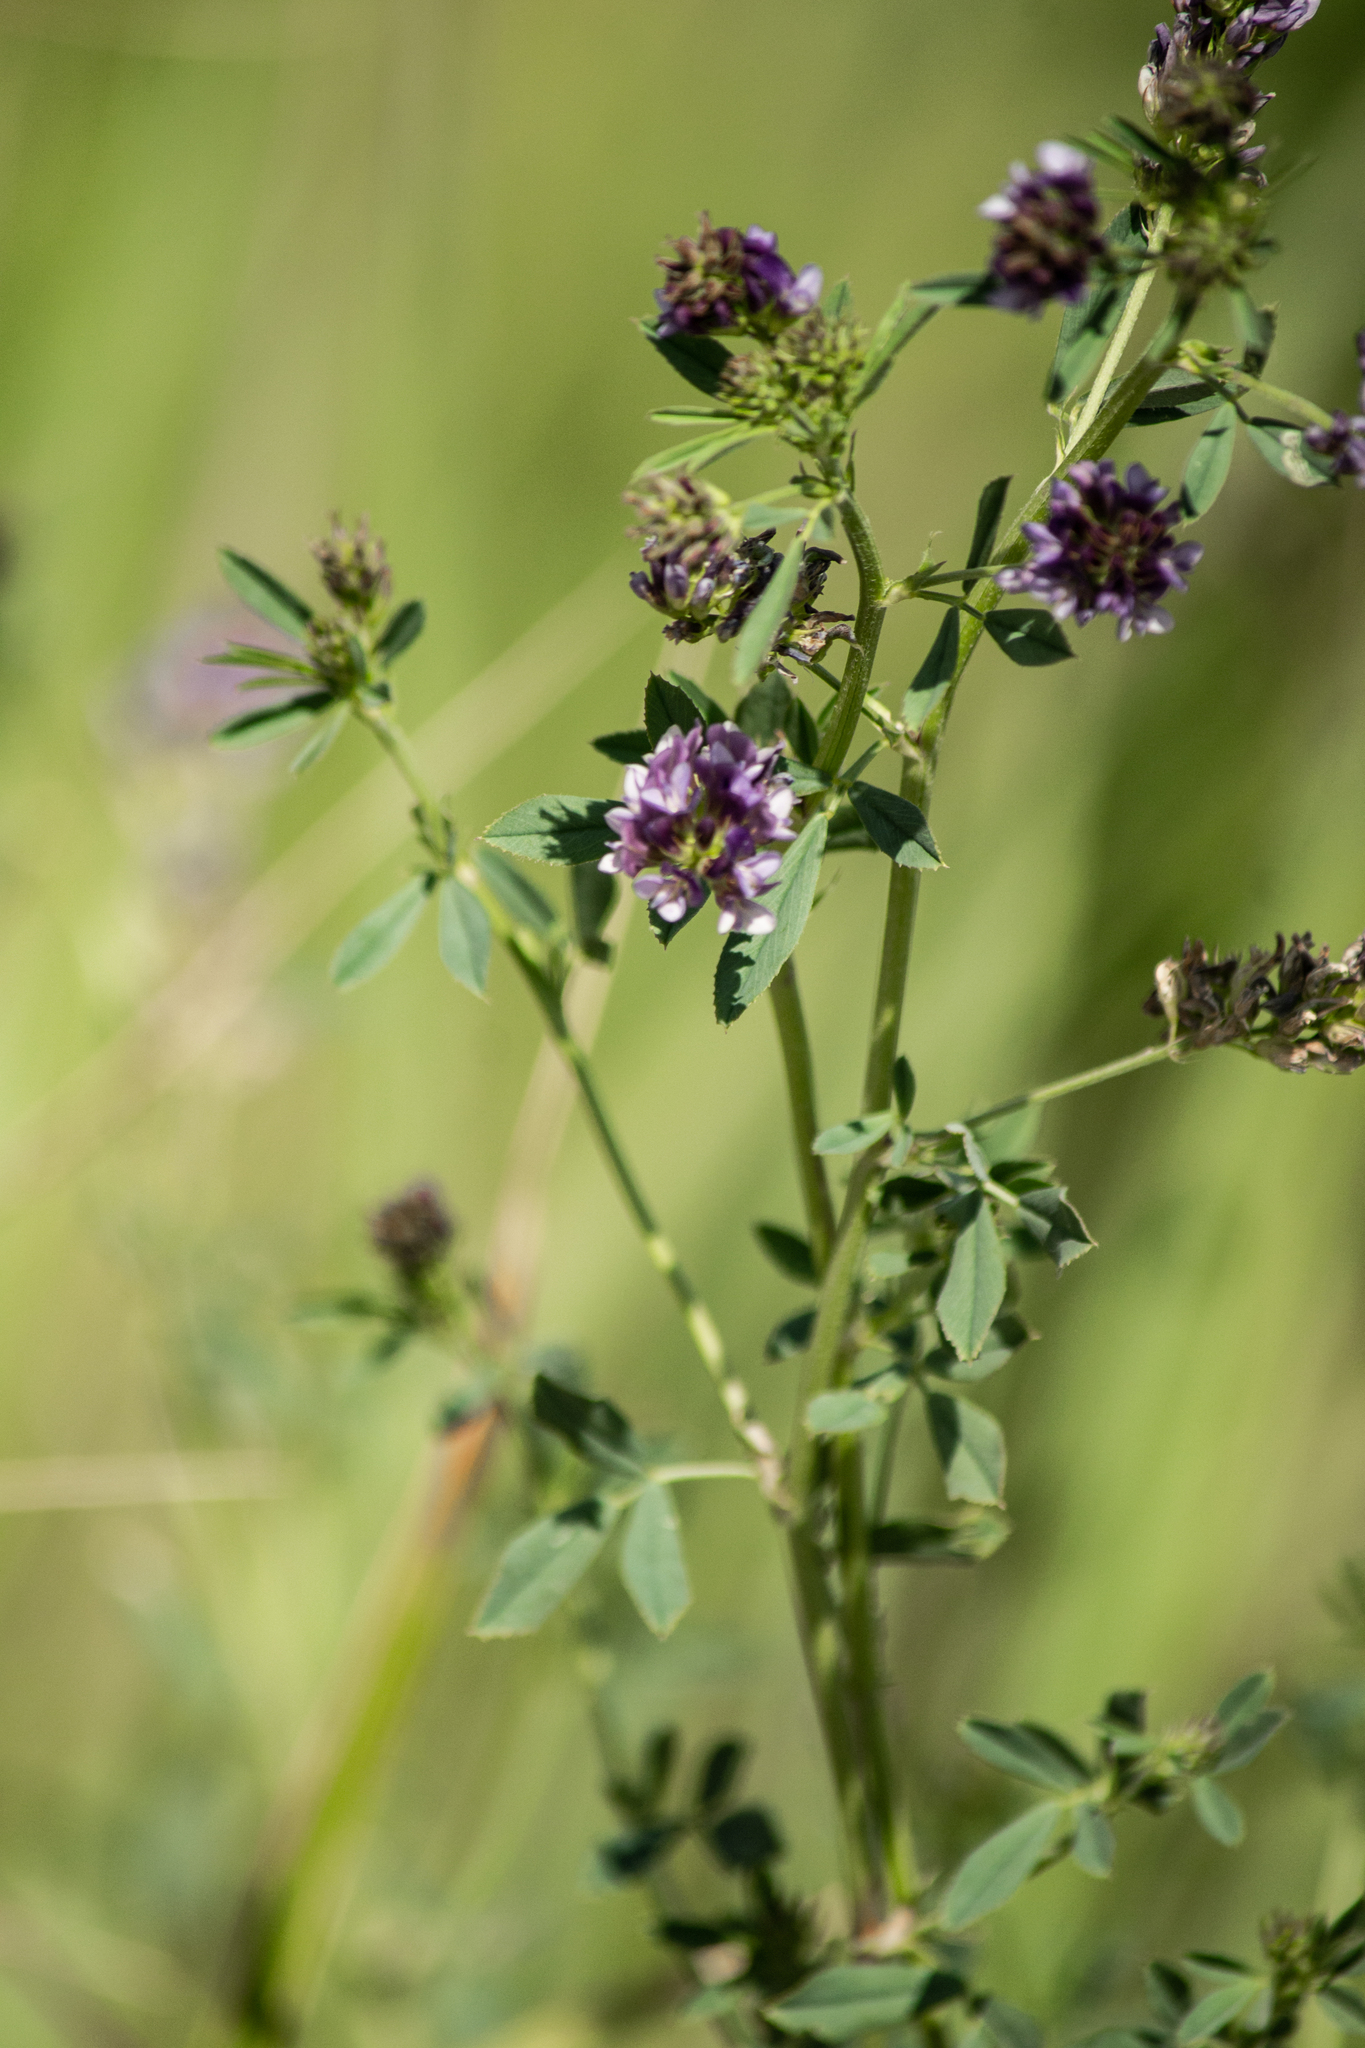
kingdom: Plantae
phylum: Tracheophyta
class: Magnoliopsida
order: Fabales
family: Fabaceae
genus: Medicago
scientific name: Medicago varia
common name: Sand lucerne
